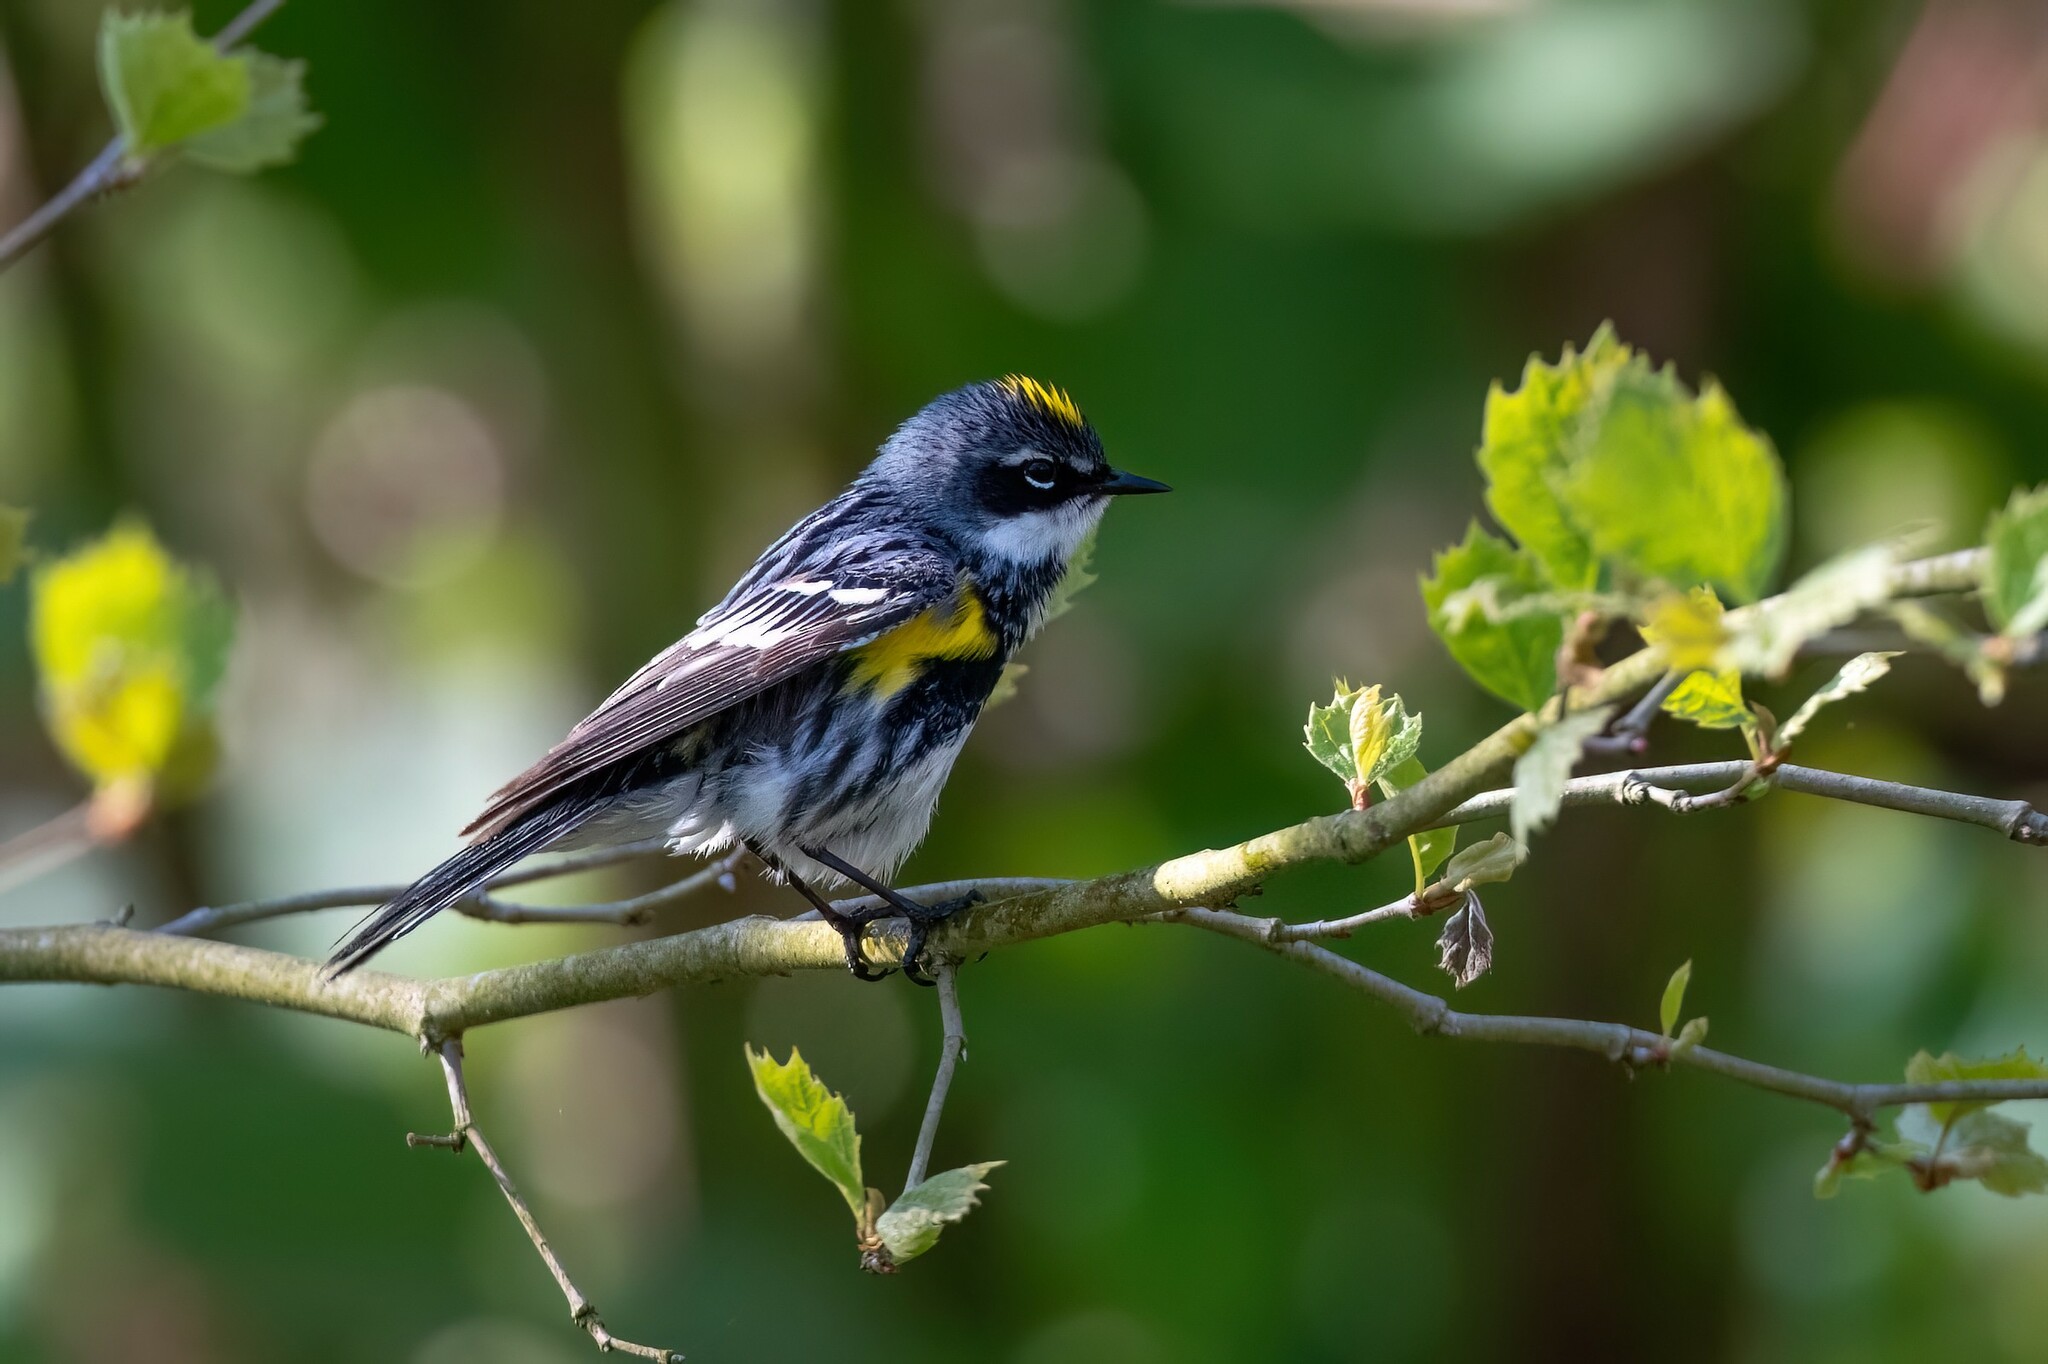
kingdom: Animalia
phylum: Chordata
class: Aves
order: Passeriformes
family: Parulidae
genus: Setophaga
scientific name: Setophaga coronata
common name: Myrtle warbler
